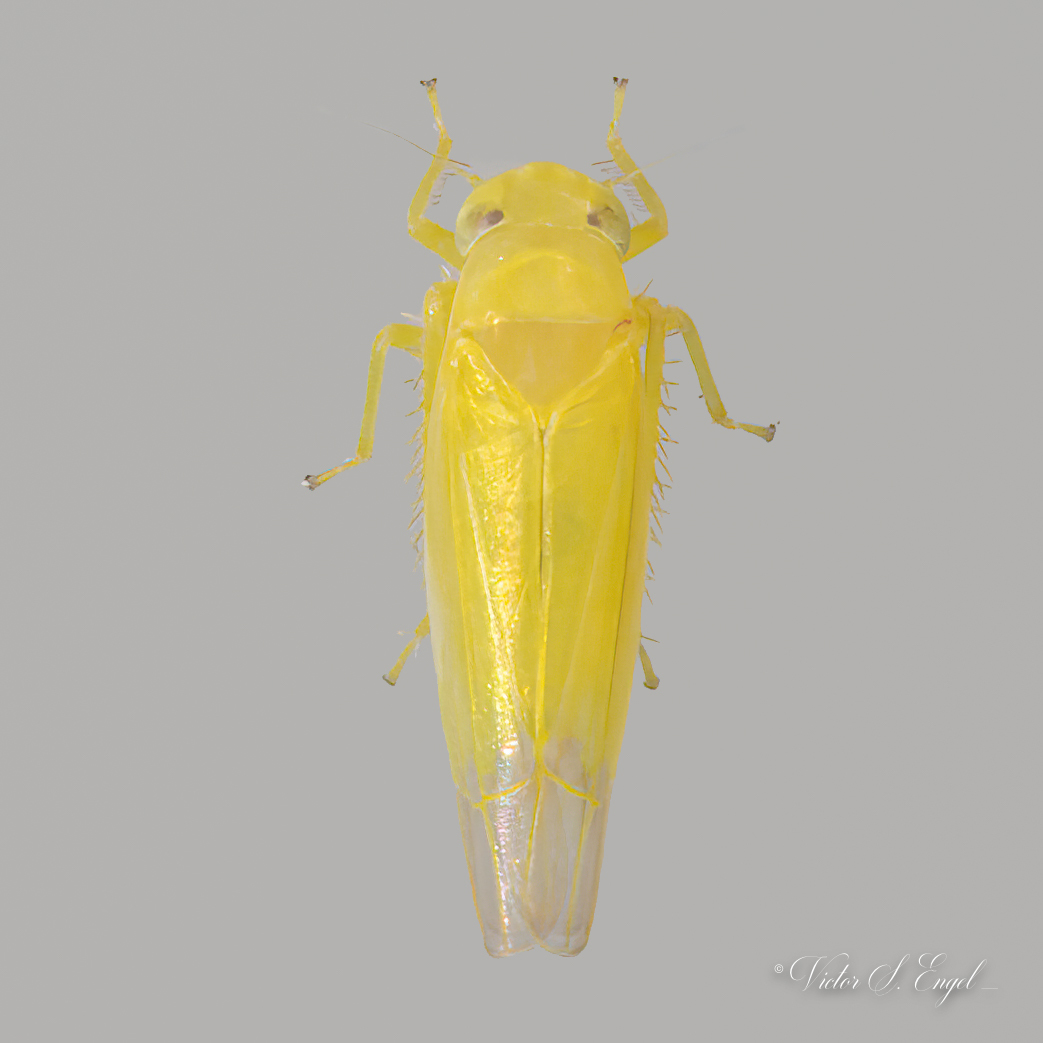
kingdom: Animalia
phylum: Arthropoda
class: Insecta
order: Hemiptera
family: Cicadellidae
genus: Alebra
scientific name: Alebra eburnea
